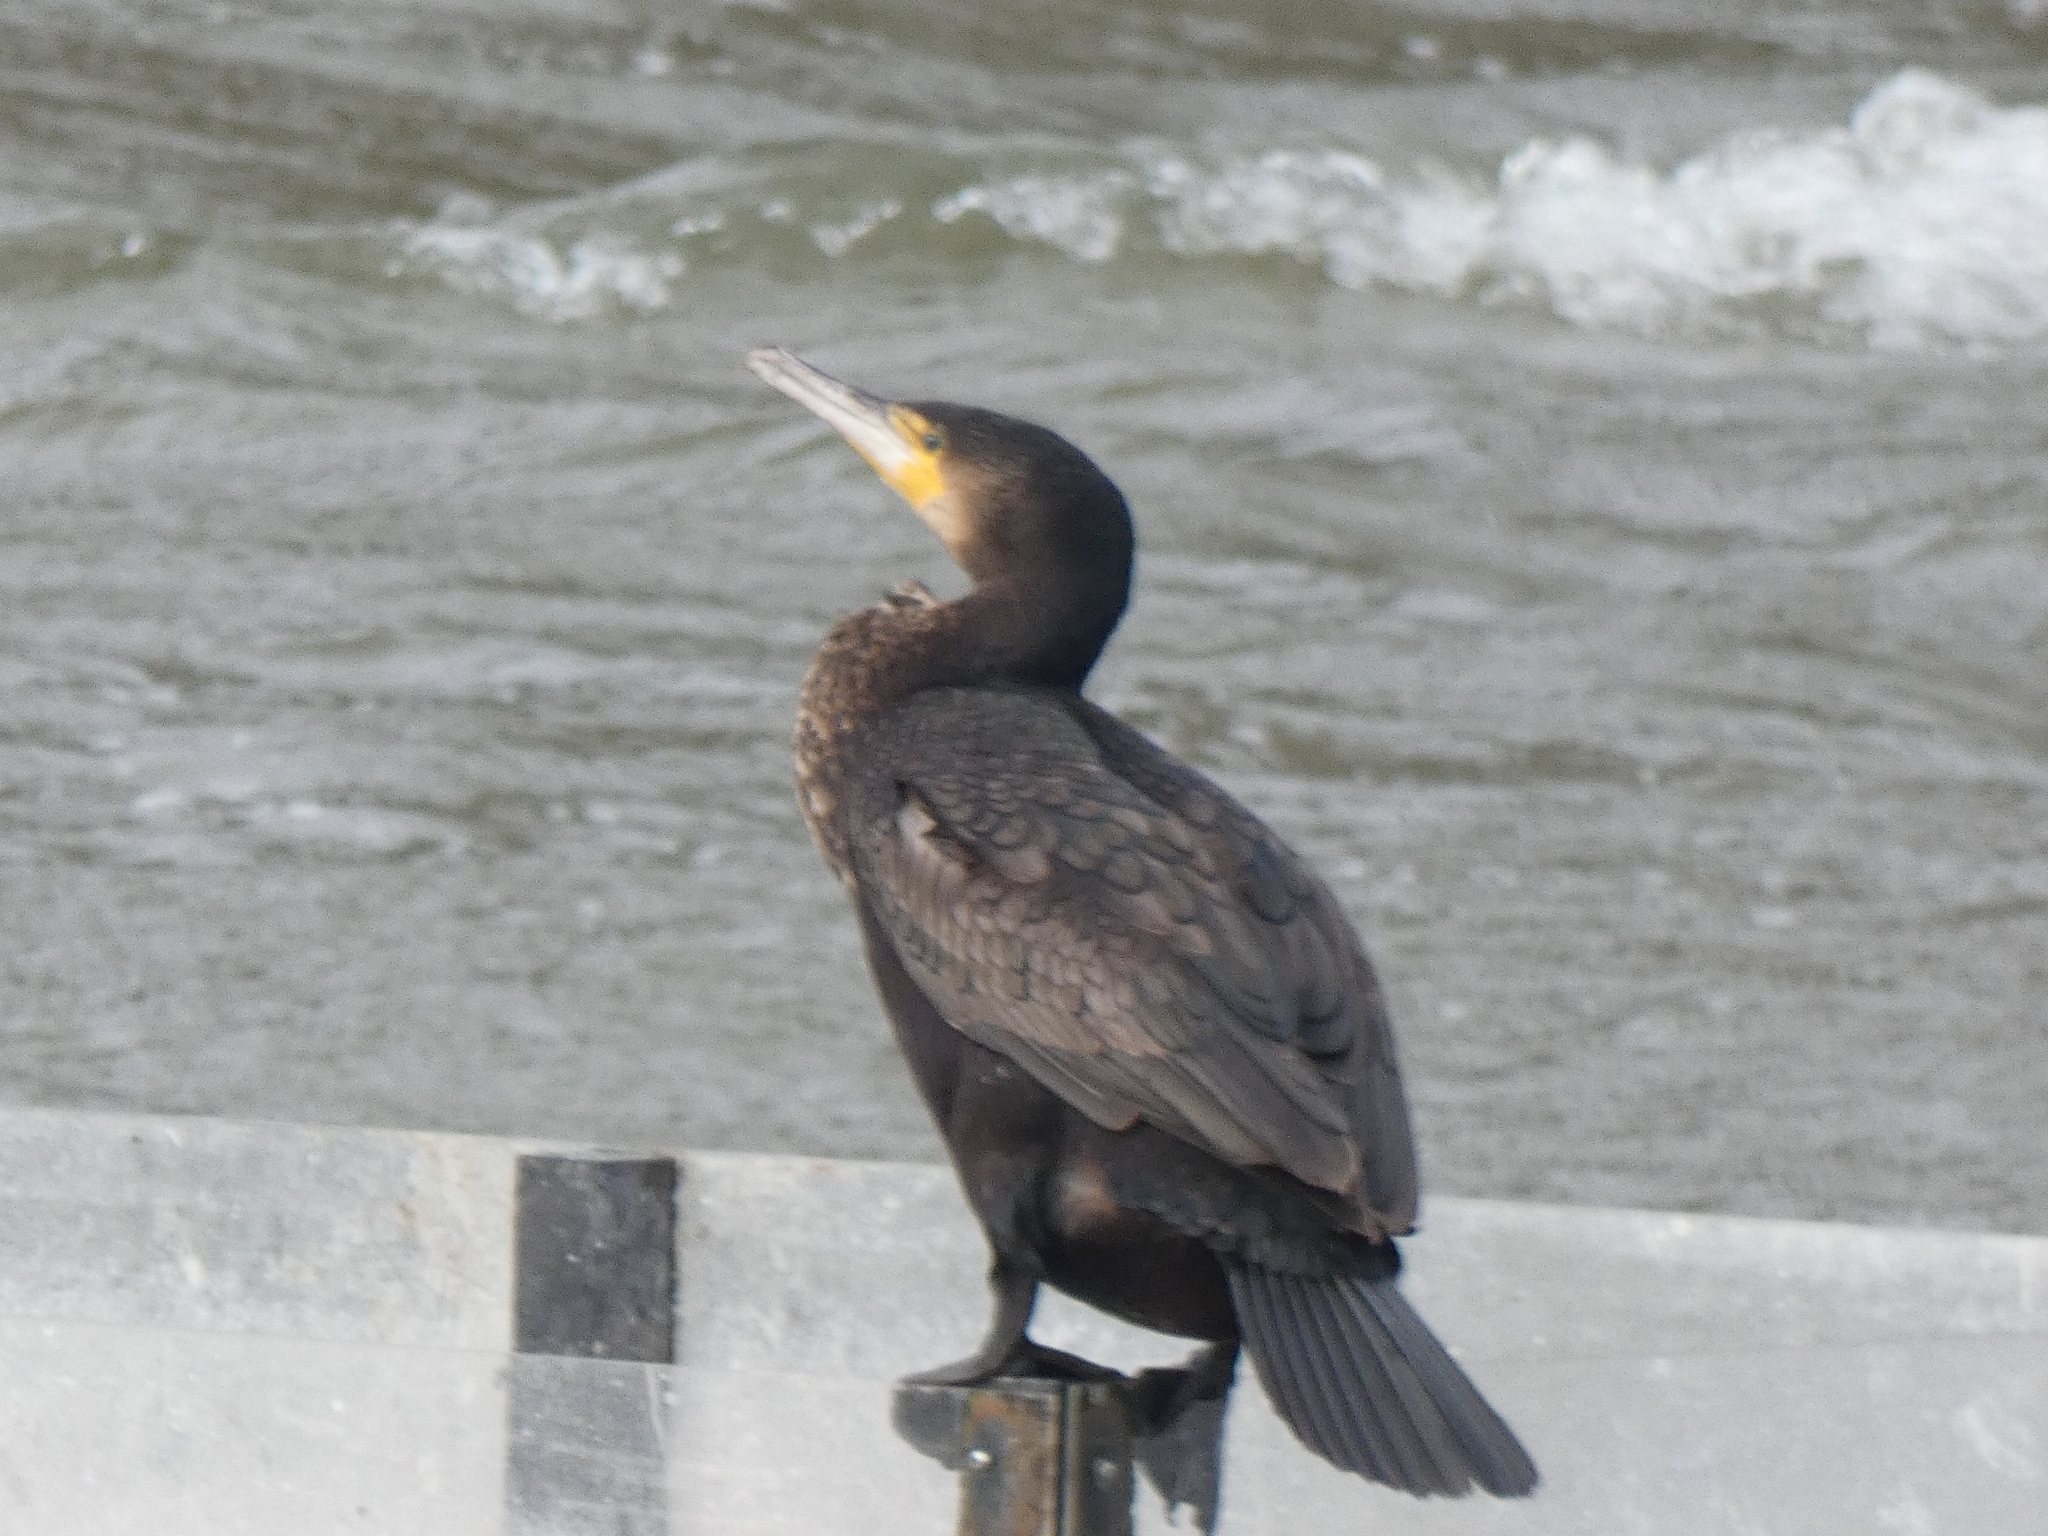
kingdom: Animalia
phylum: Chordata
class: Aves
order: Suliformes
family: Phalacrocoracidae
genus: Phalacrocorax
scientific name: Phalacrocorax carbo
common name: Great cormorant
